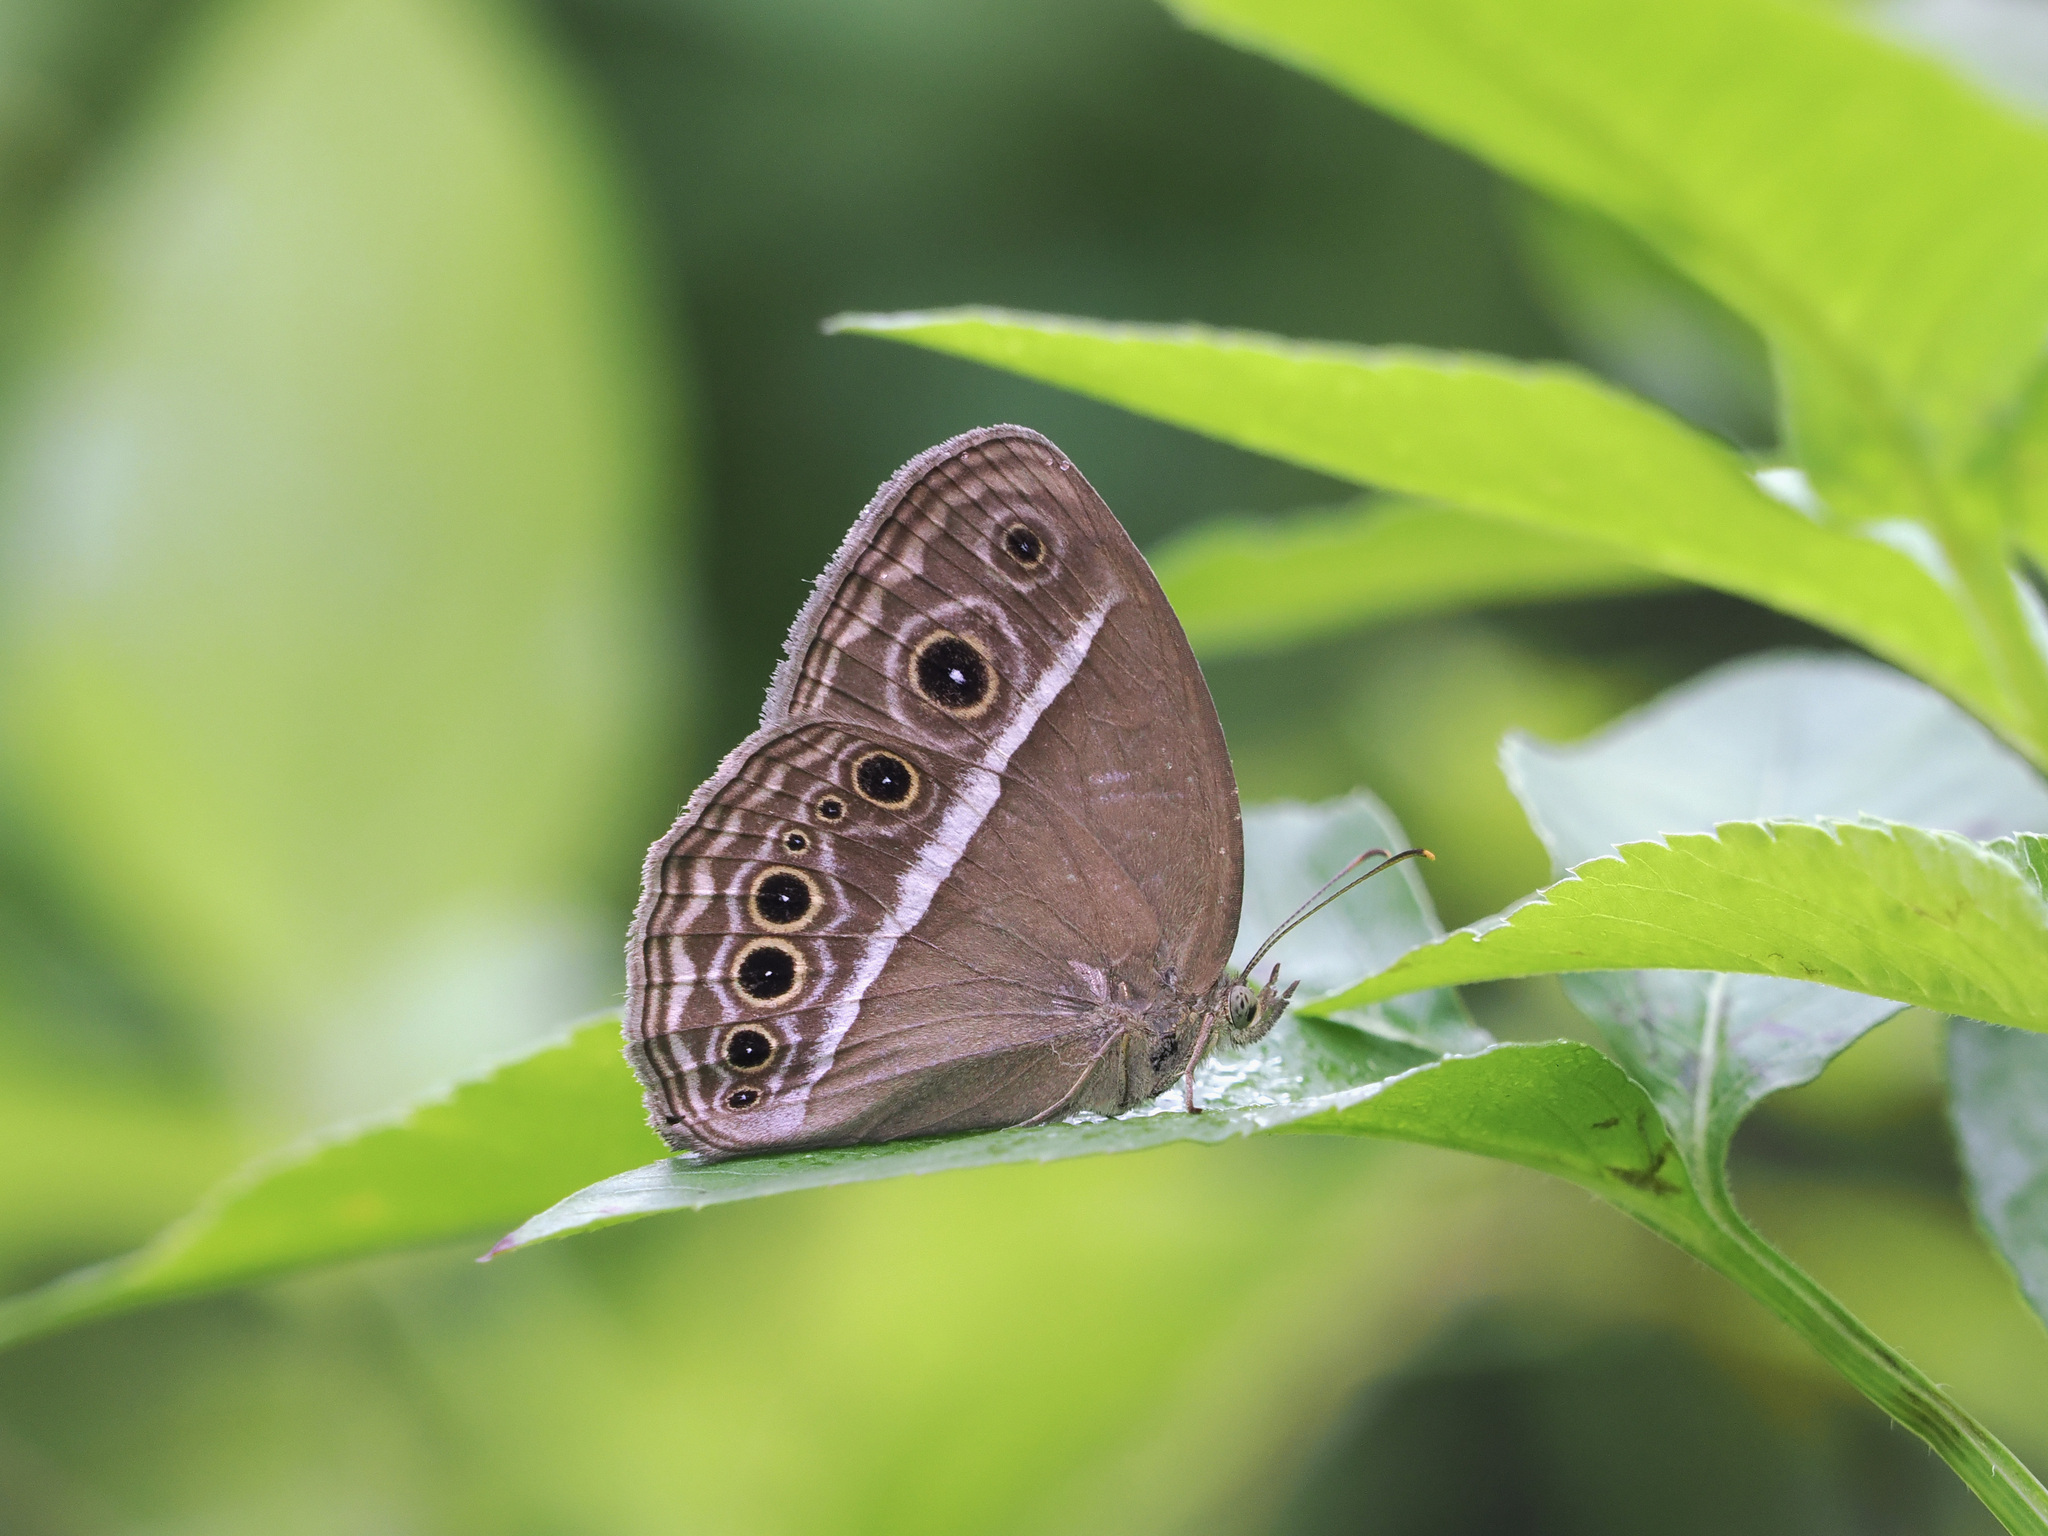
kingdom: Animalia
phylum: Arthropoda
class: Insecta
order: Lepidoptera
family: Nymphalidae
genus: Mycalesis
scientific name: Mycalesis mineus
